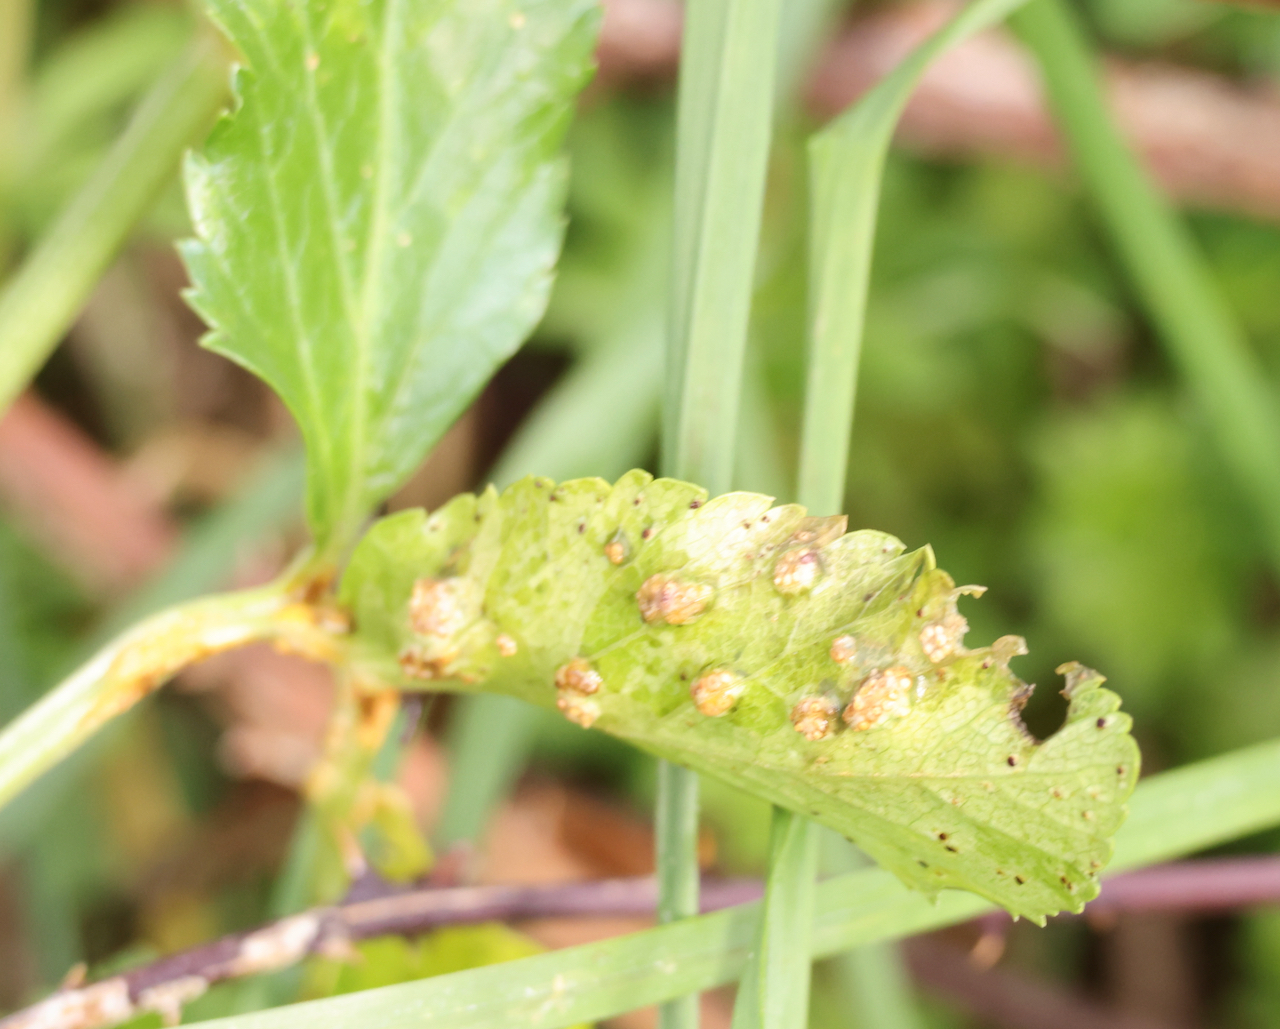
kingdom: Fungi
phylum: Basidiomycota
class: Pucciniomycetes
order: Pucciniales
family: Pucciniaceae
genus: Puccinia
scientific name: Puccinia smyrnii
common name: Alexanders rust
